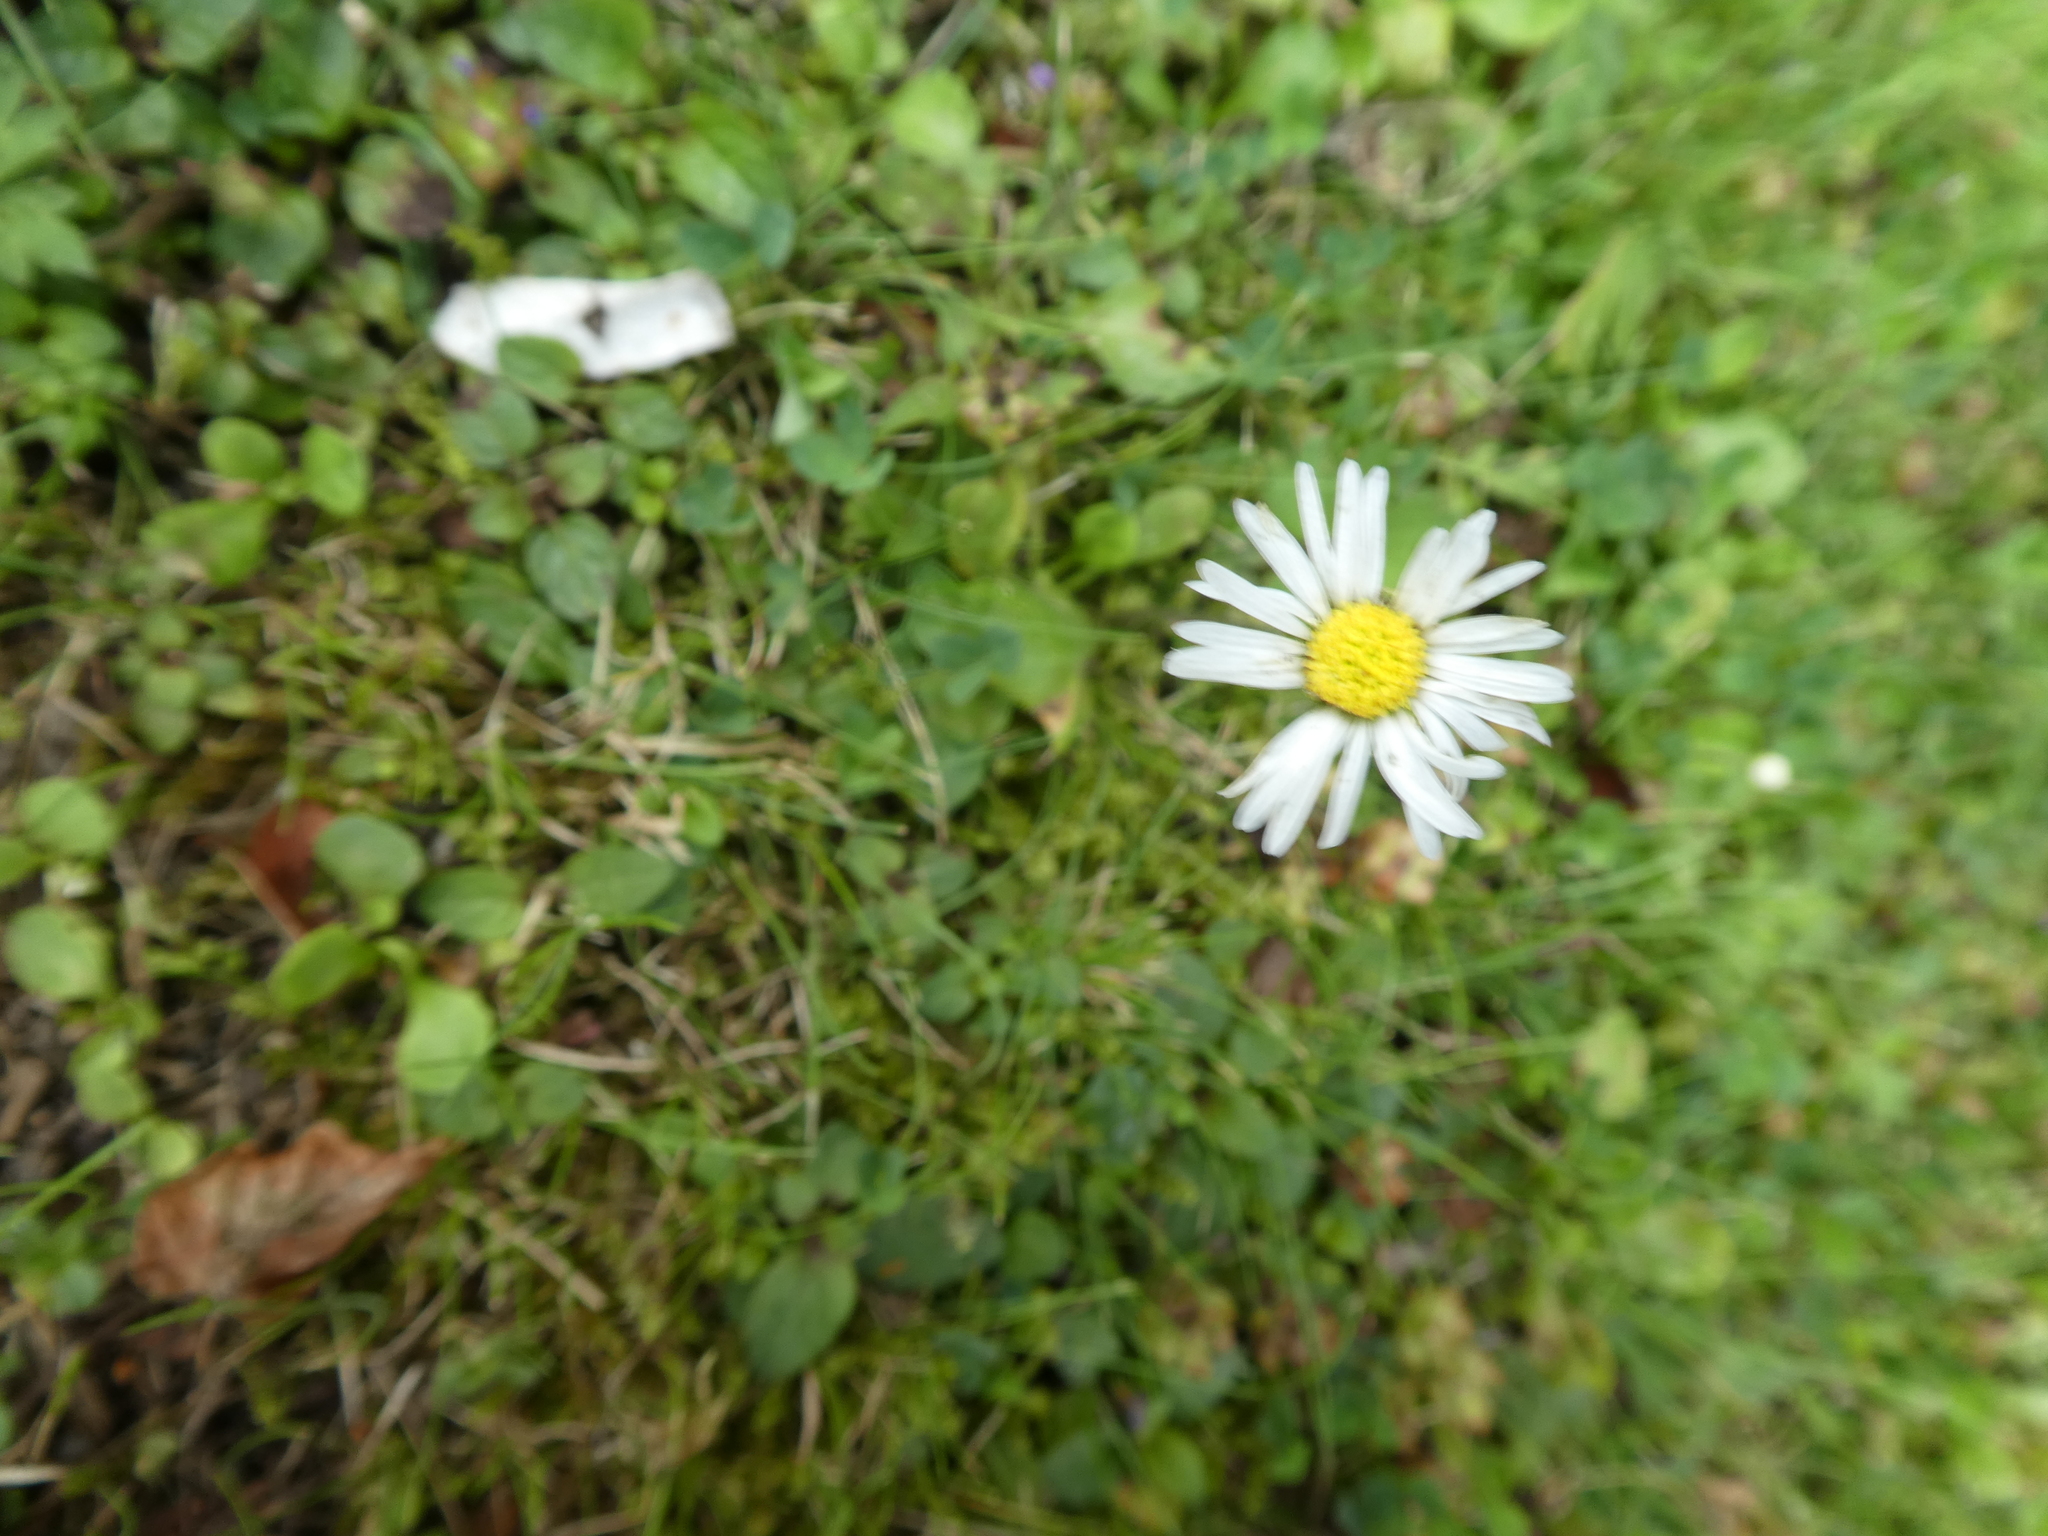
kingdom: Plantae
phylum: Tracheophyta
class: Magnoliopsida
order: Asterales
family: Asteraceae
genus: Bellis
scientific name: Bellis perennis
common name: Lawndaisy
